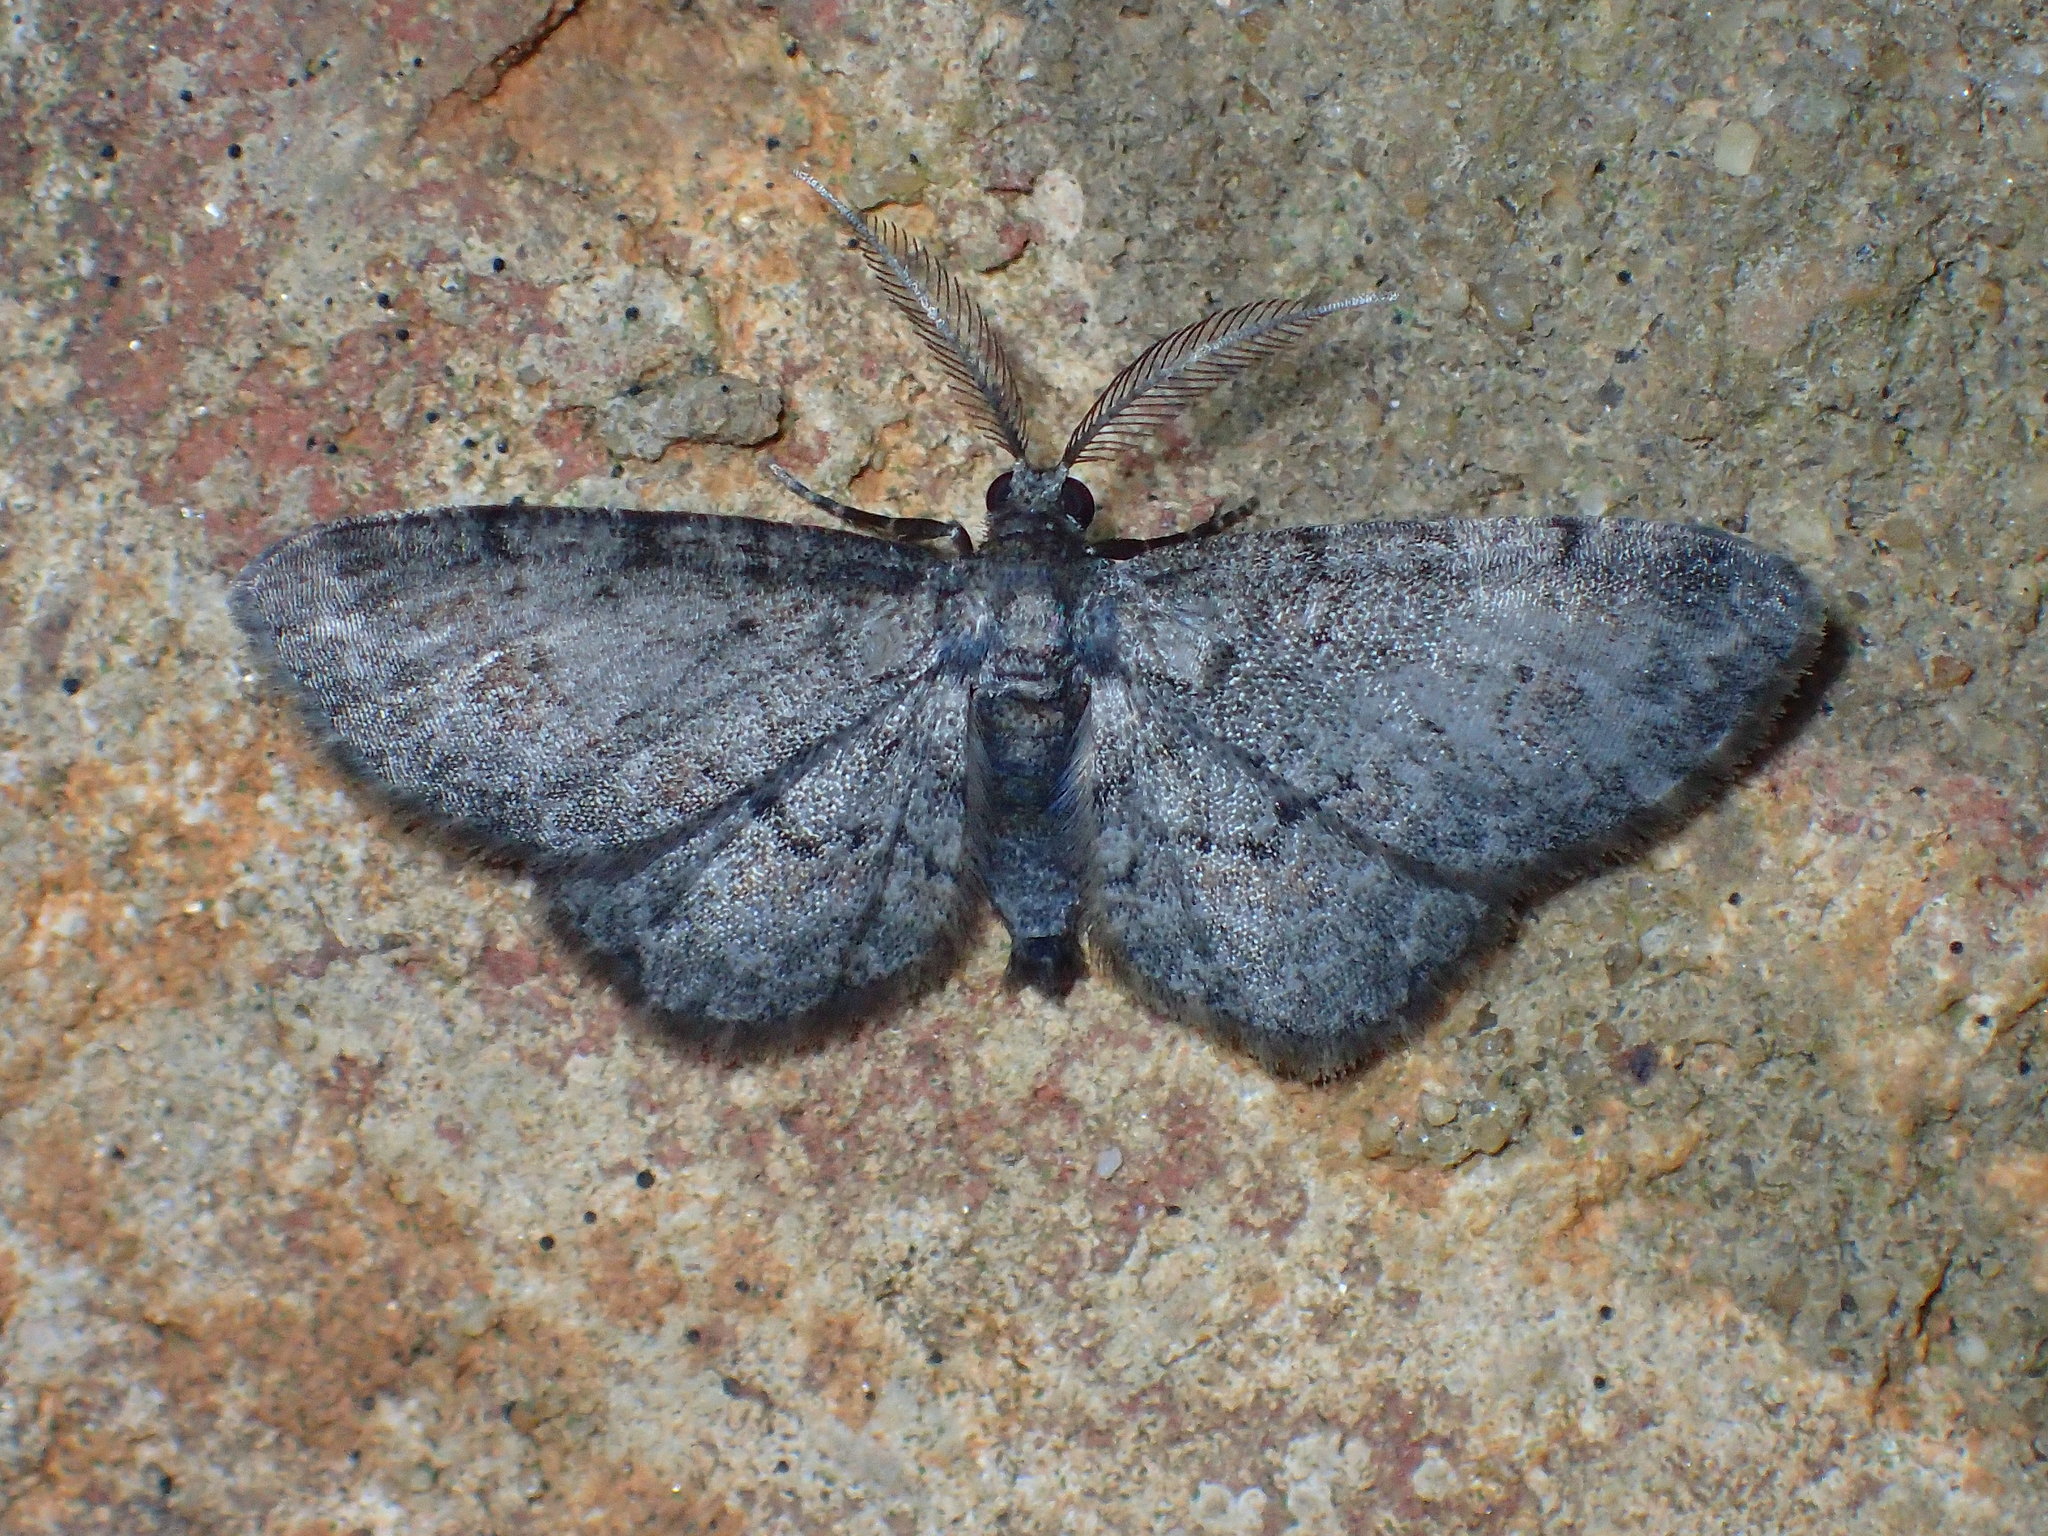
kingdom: Animalia
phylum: Arthropoda
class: Insecta
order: Lepidoptera
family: Geometridae
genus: Glenoides
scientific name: Glenoides texanaria
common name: Texas gray
